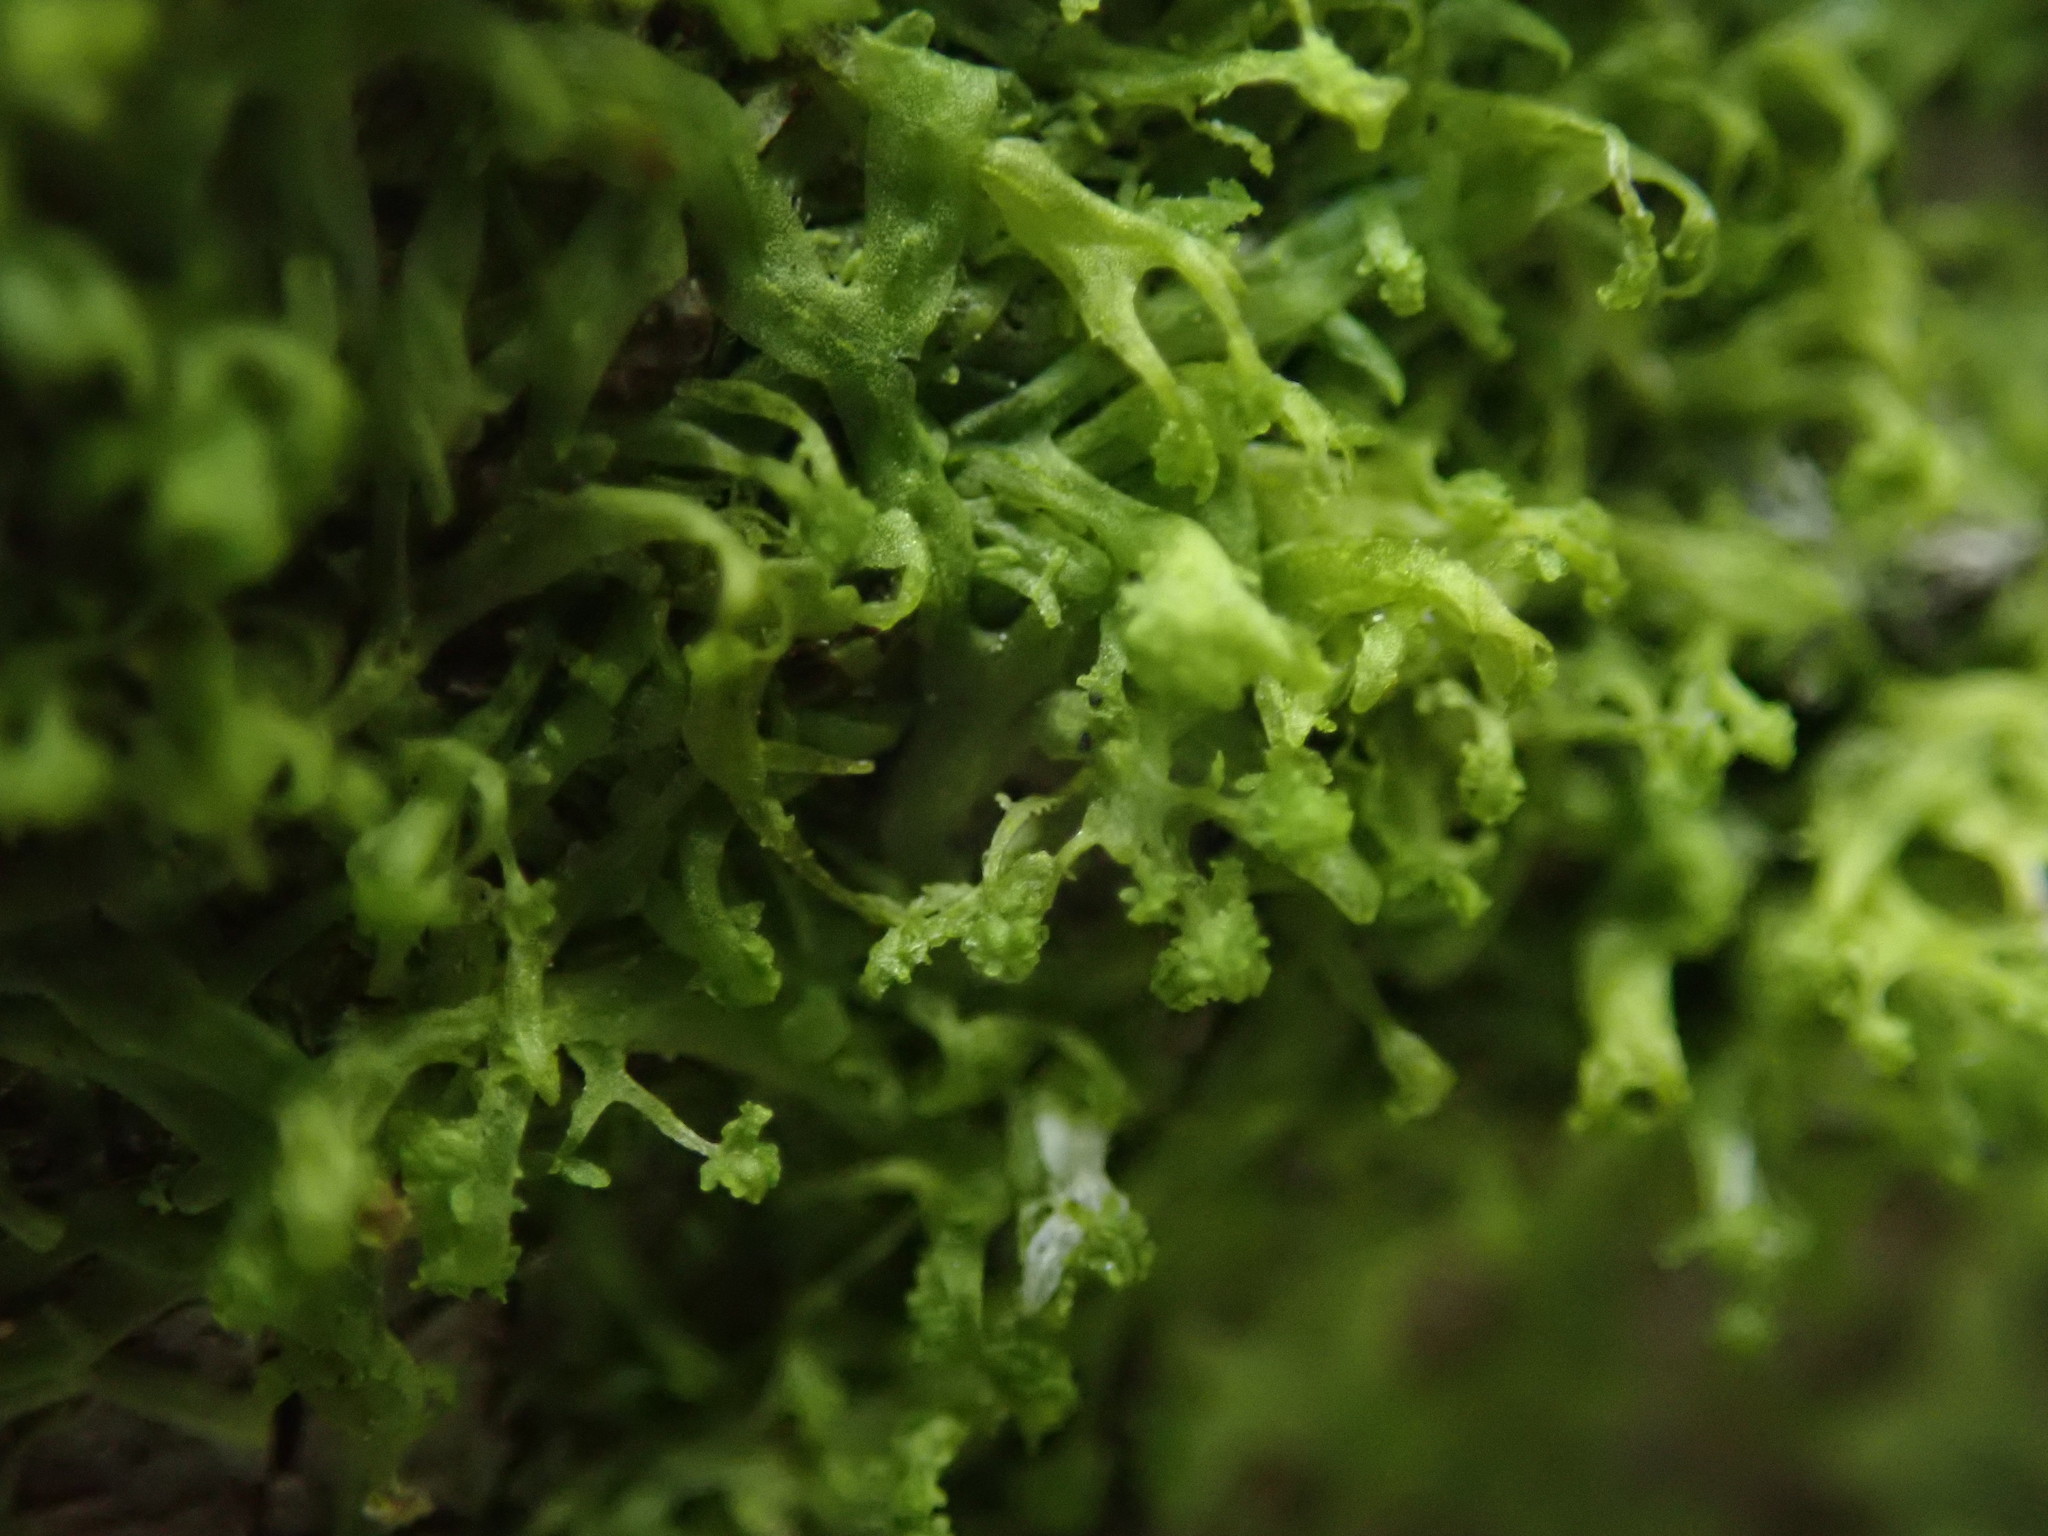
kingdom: Plantae
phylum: Marchantiophyta
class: Jungermanniopsida
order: Metzgeriales
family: Metzgeriaceae
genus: Metzgeria
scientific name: Metzgeria consanguinea
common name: Whiskered veilwort
